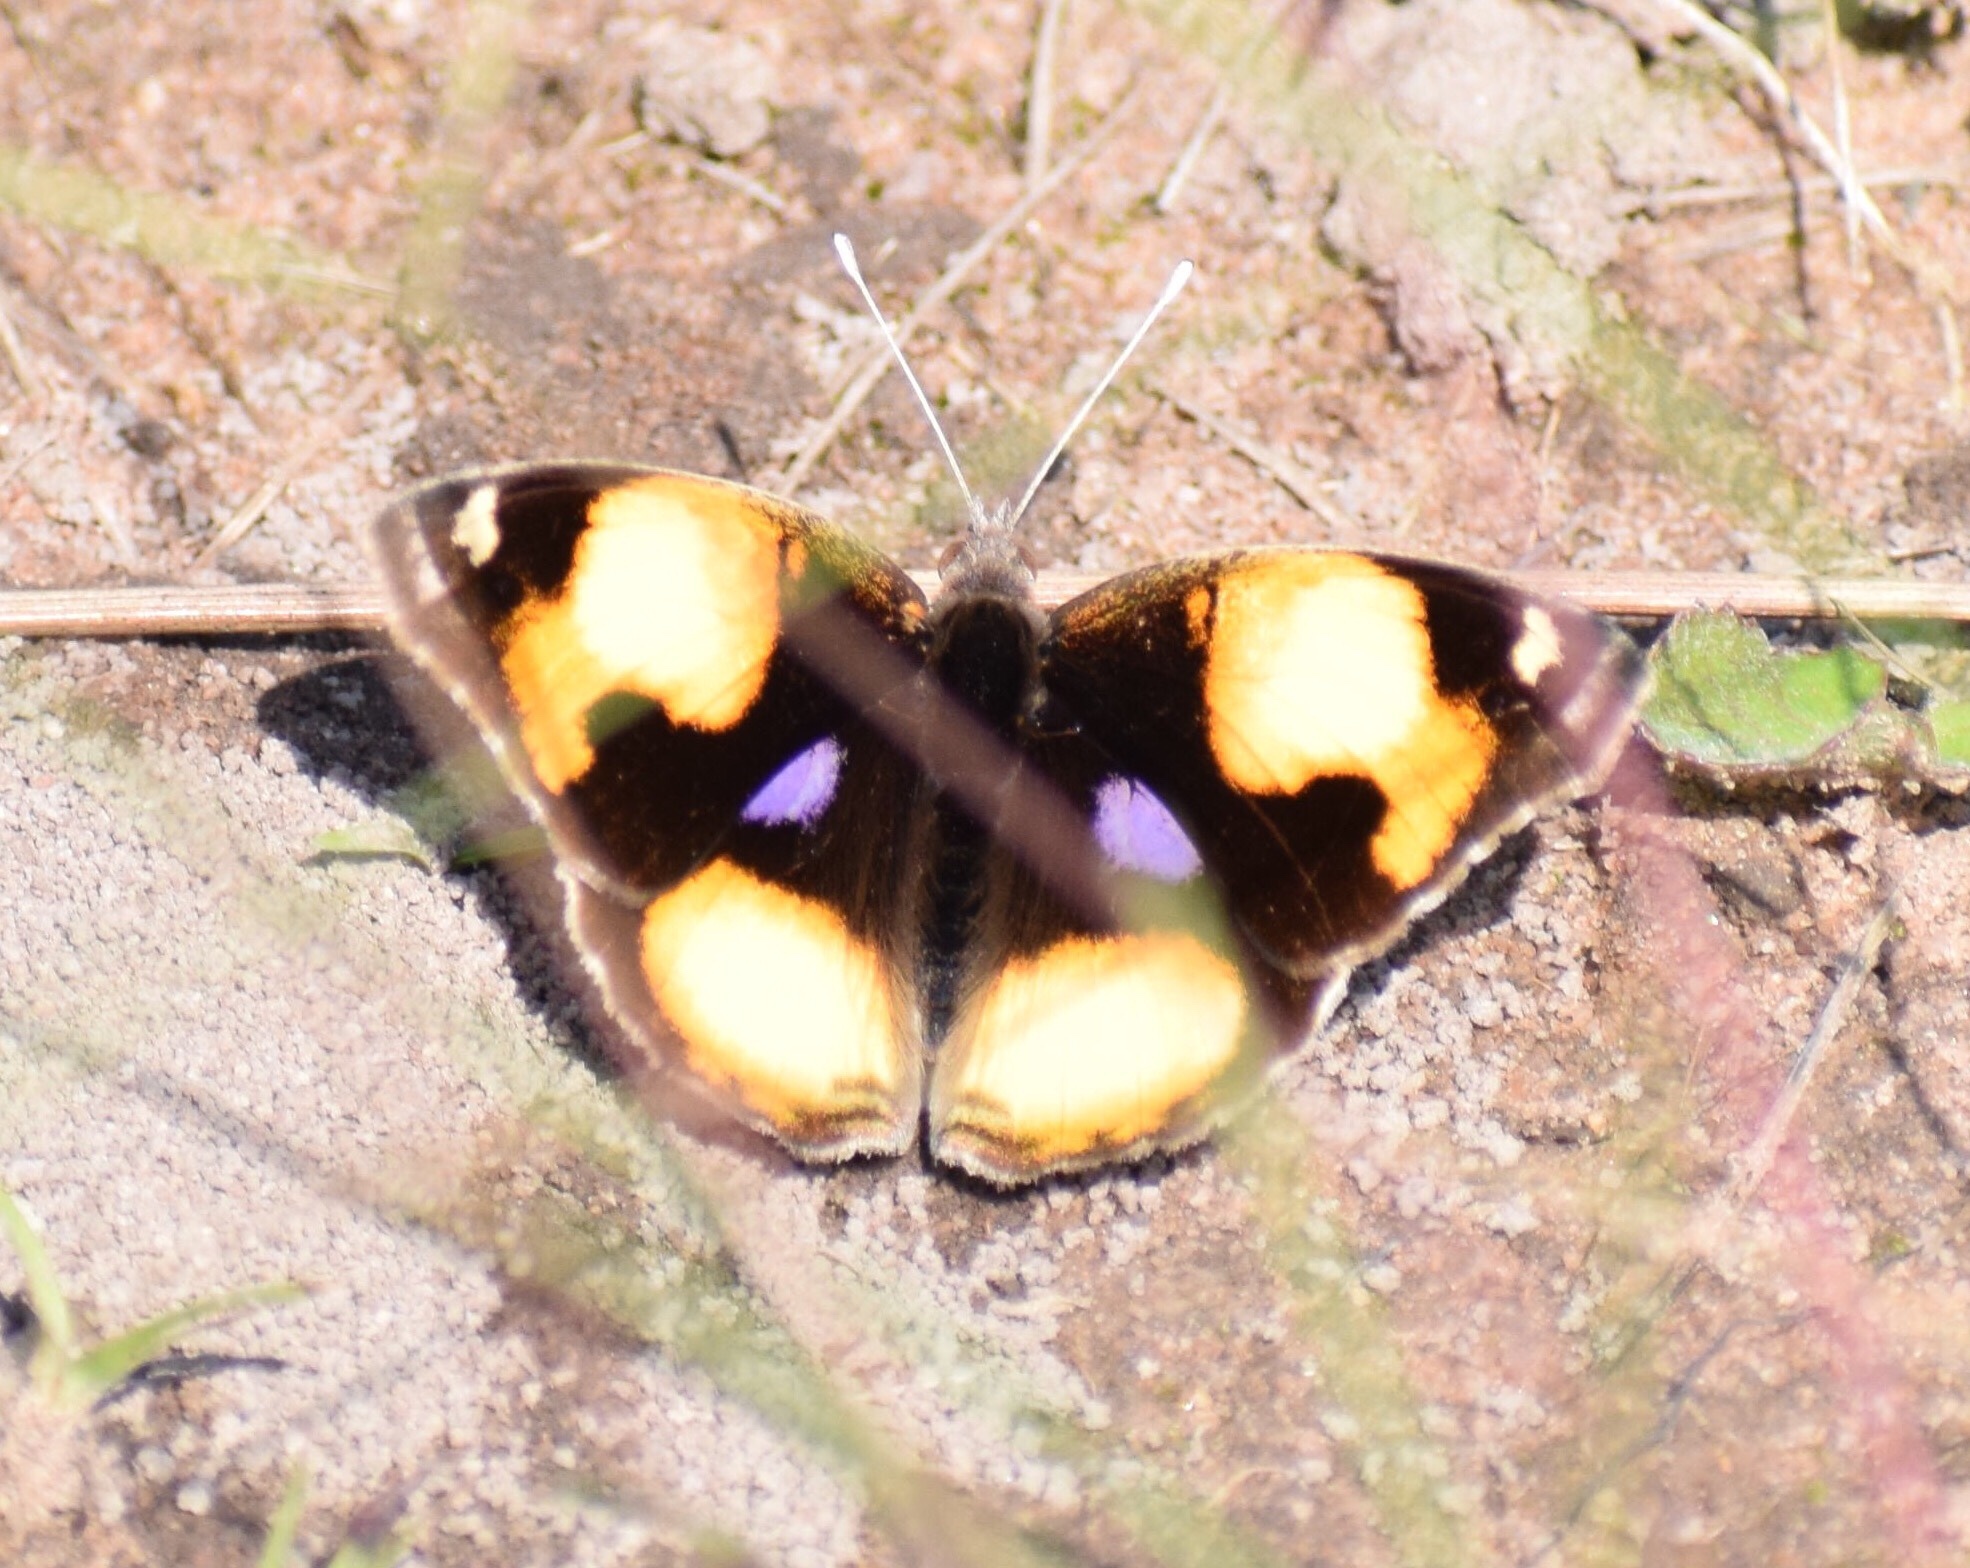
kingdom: Animalia
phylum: Arthropoda
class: Insecta
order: Lepidoptera
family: Nymphalidae
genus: Junonia
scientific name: Junonia hierta
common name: Yellow pansy
